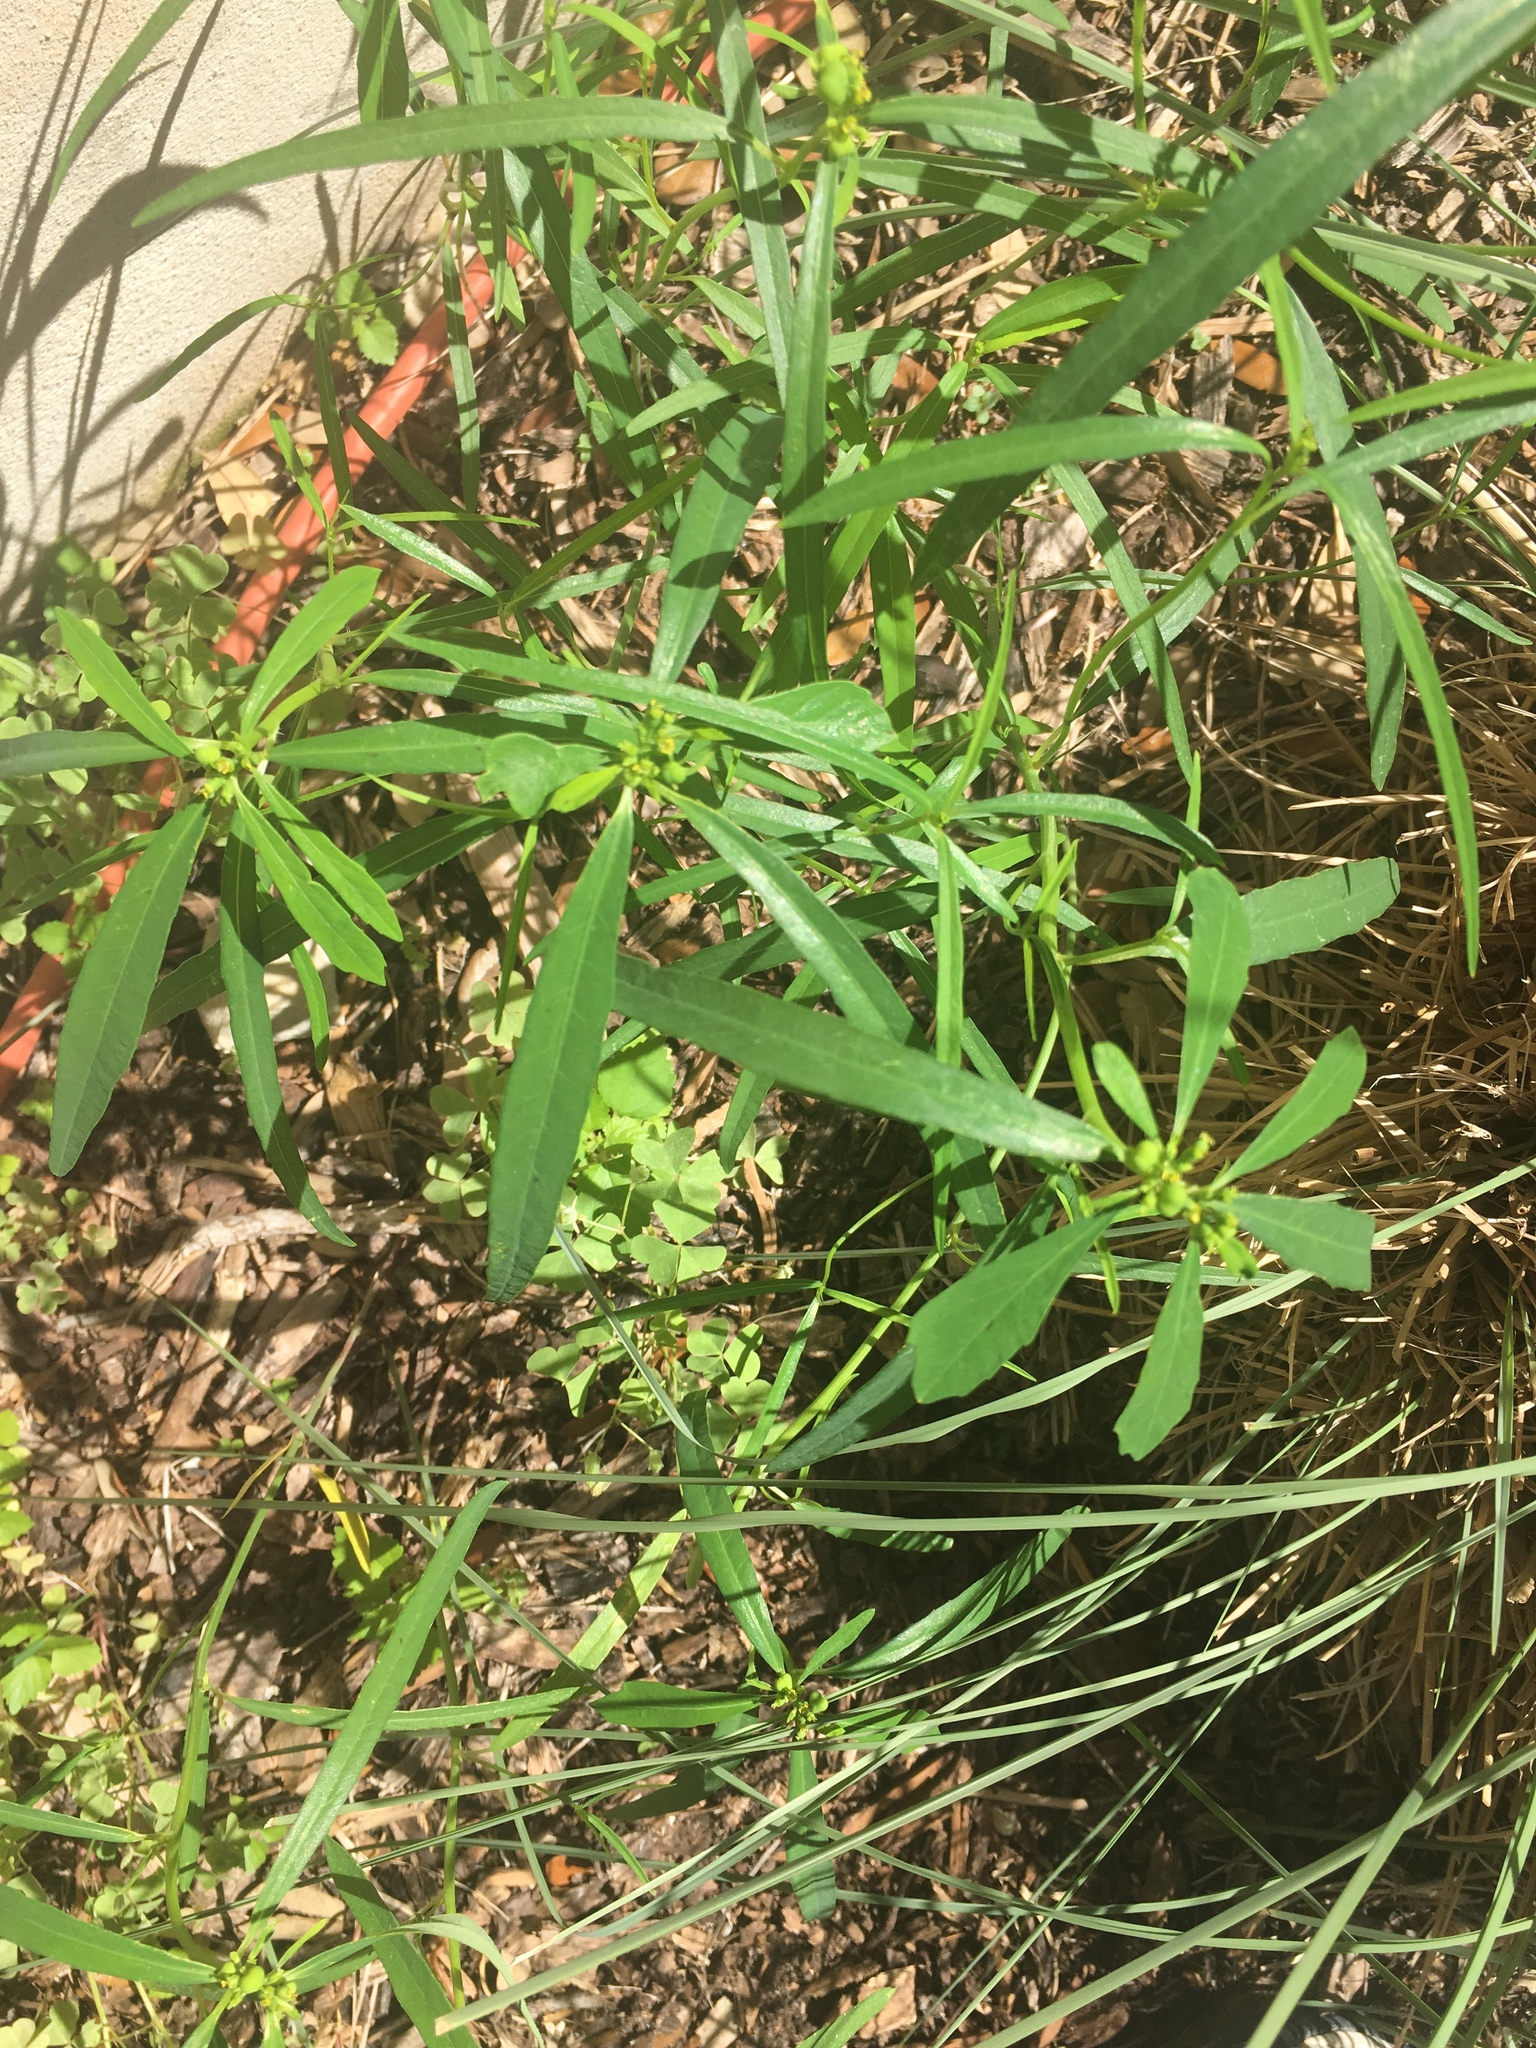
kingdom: Plantae
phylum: Tracheophyta
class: Magnoliopsida
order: Malpighiales
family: Euphorbiaceae
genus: Euphorbia
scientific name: Euphorbia heterophylla
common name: Mexican fireplant
